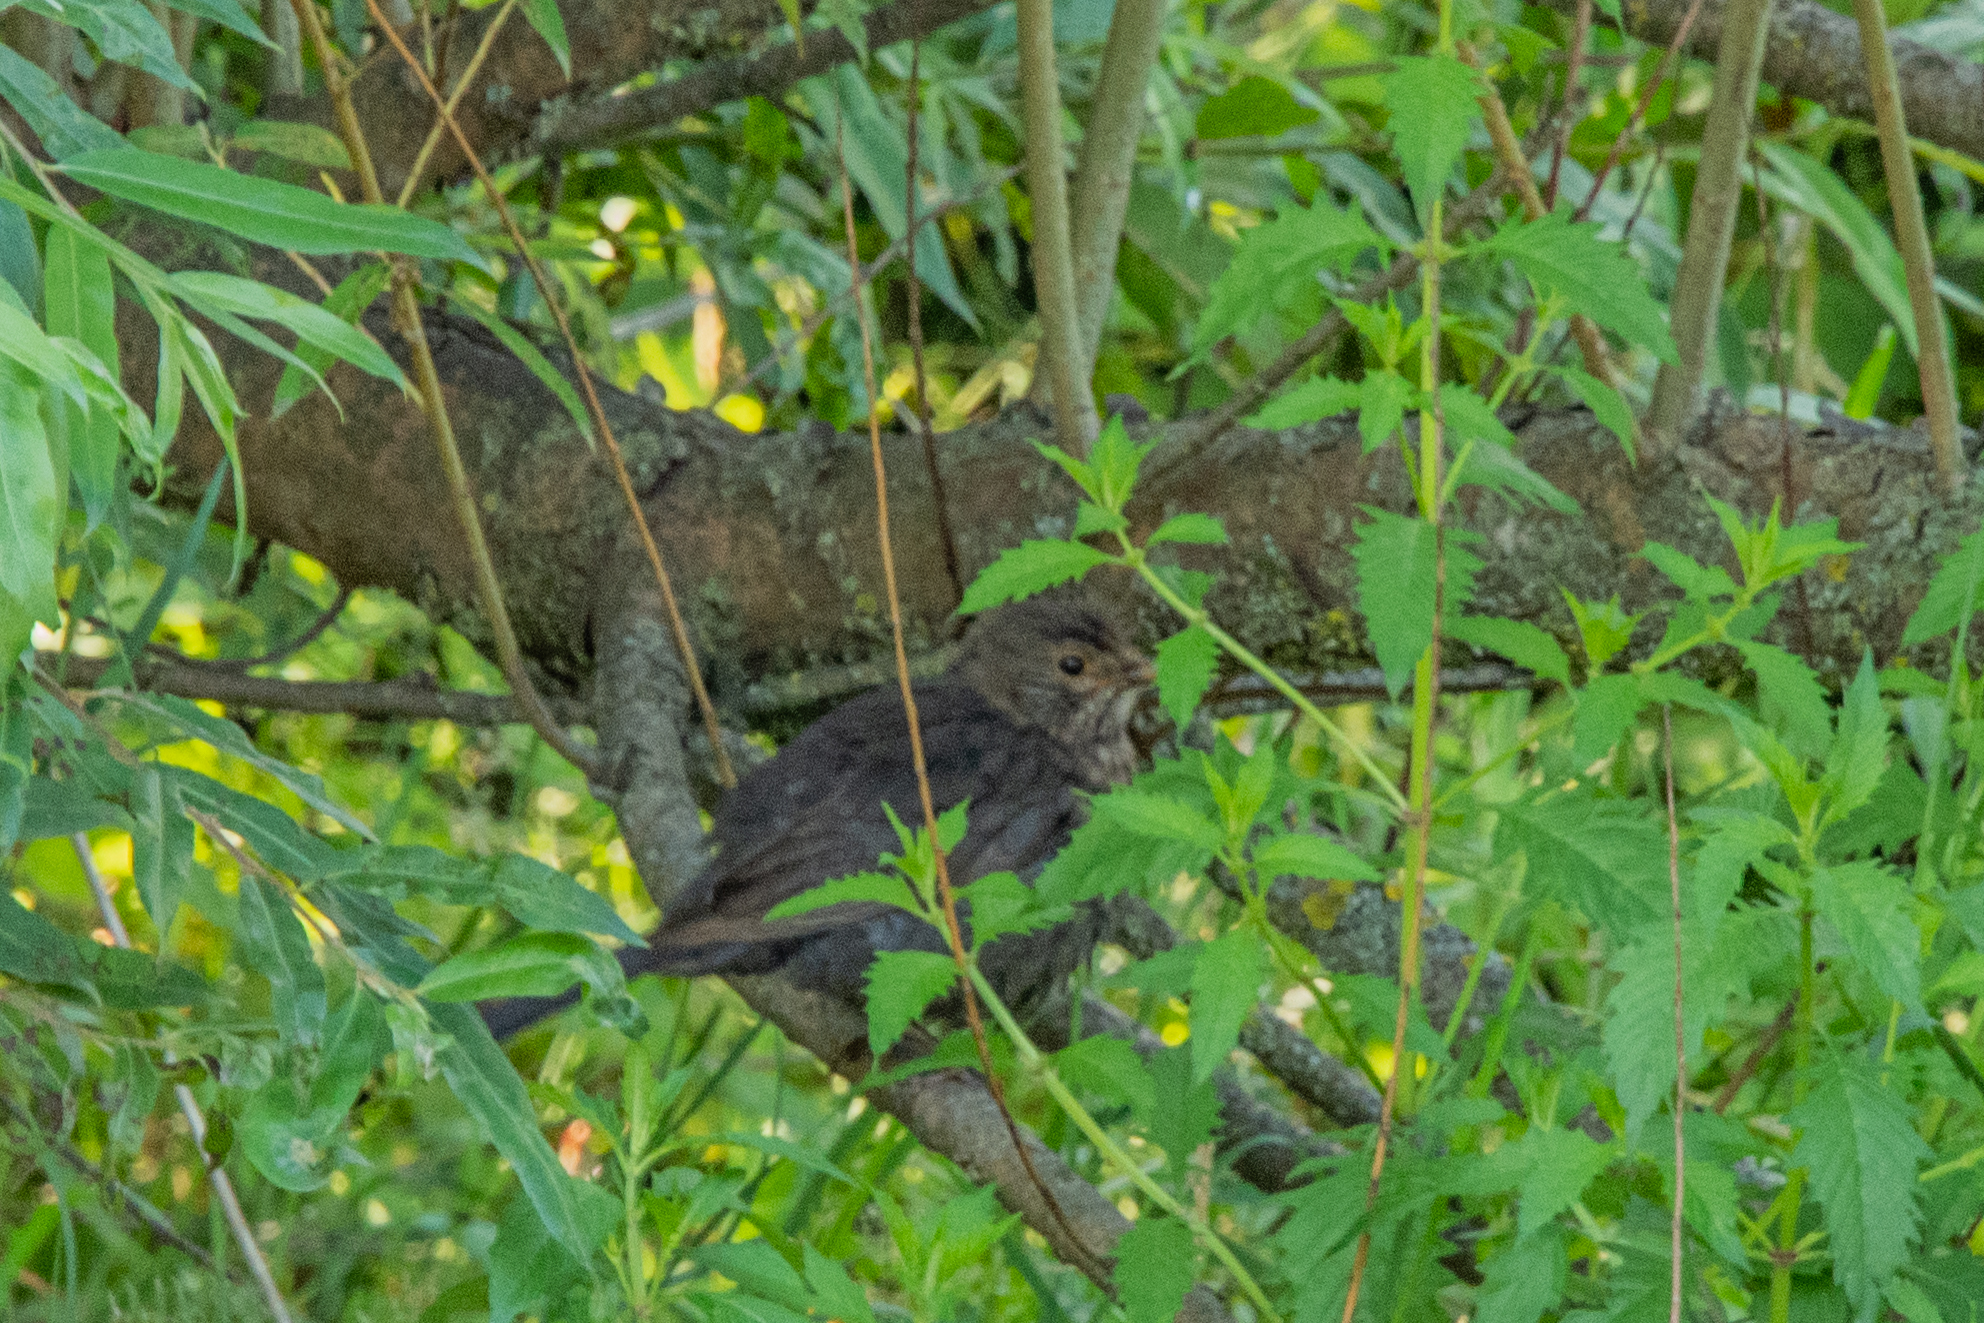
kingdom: Animalia
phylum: Chordata
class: Aves
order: Passeriformes
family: Turdidae
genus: Turdus
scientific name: Turdus merula
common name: Common blackbird
